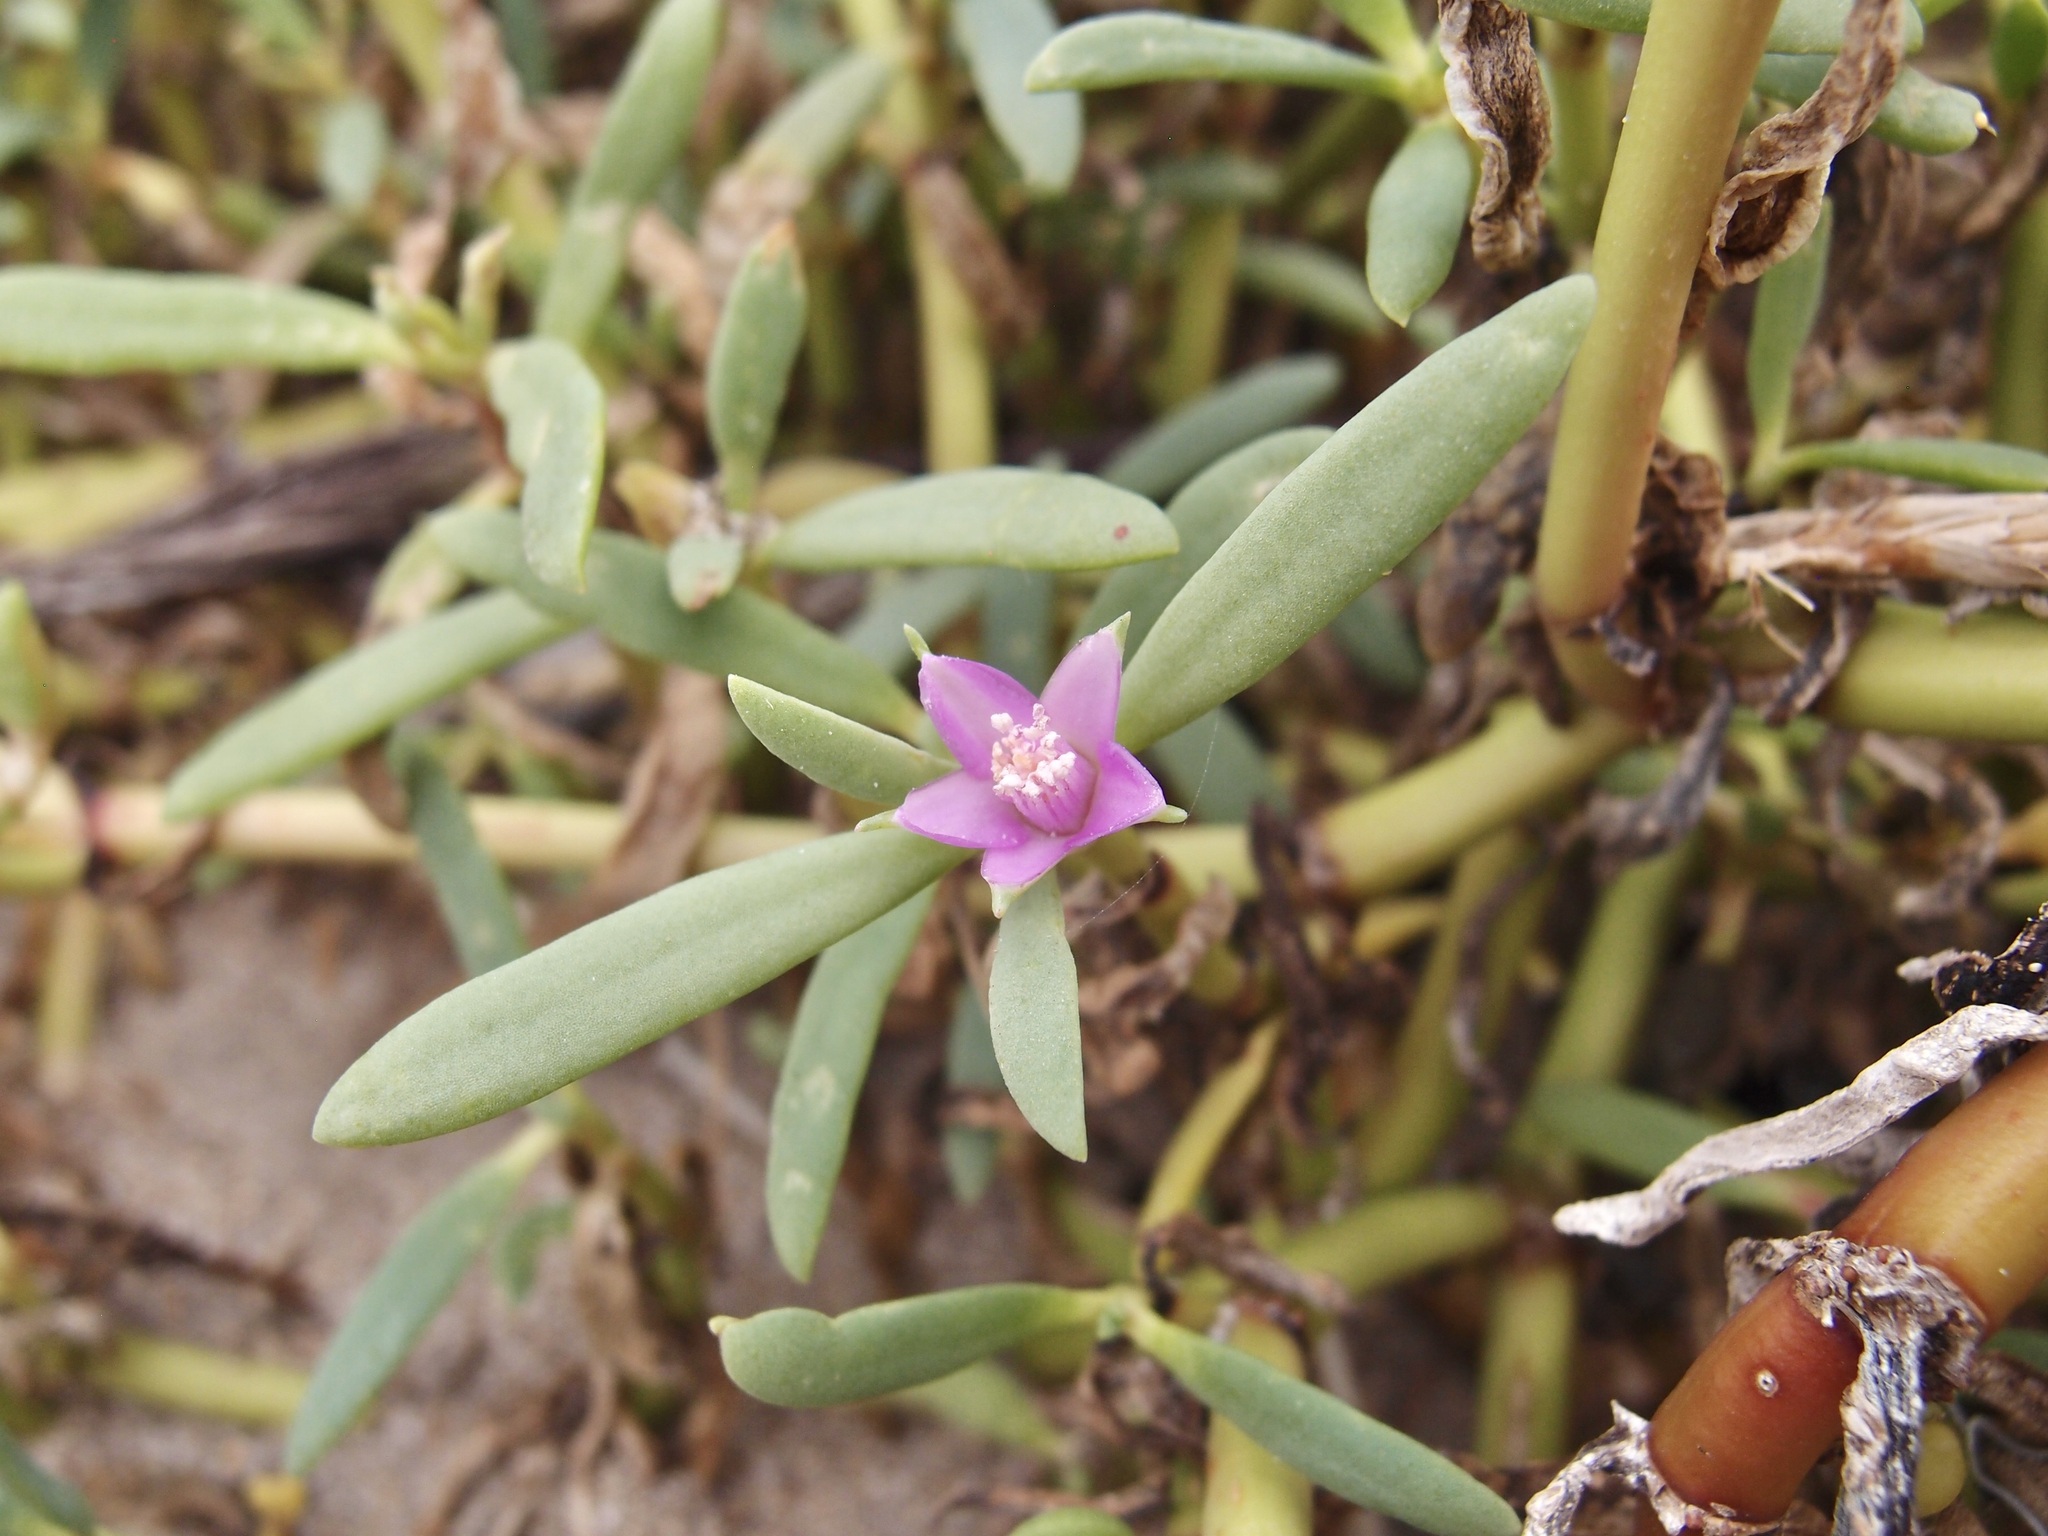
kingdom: Plantae
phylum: Tracheophyta
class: Magnoliopsida
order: Caryophyllales
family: Aizoaceae
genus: Sesuvium
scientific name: Sesuvium portulacastrum
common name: Sea-purslane
